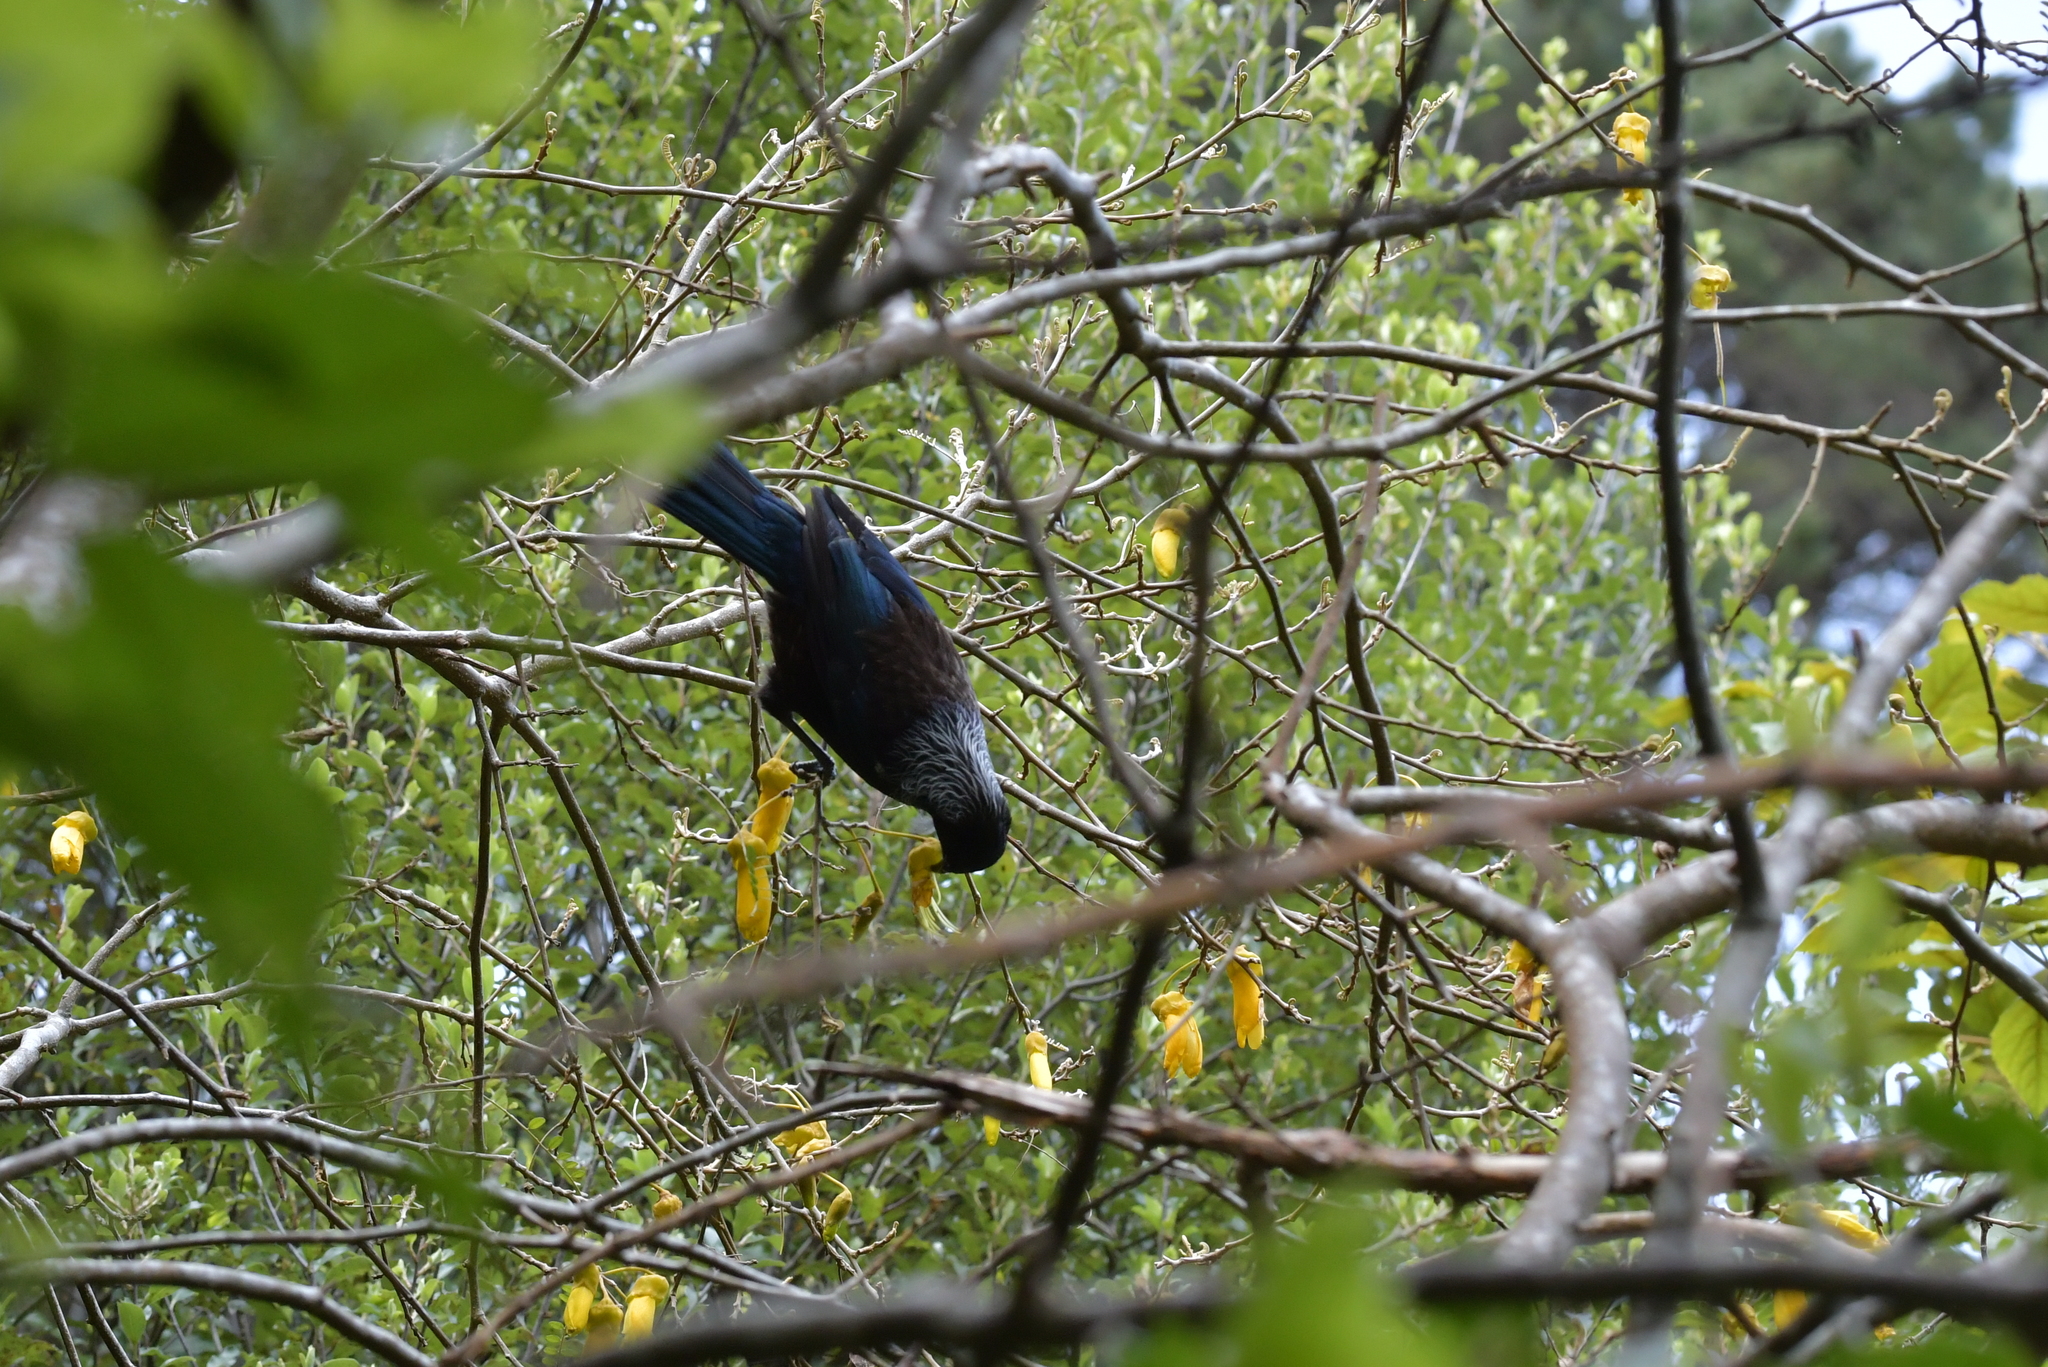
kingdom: Animalia
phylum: Chordata
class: Aves
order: Passeriformes
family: Meliphagidae
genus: Prosthemadera
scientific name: Prosthemadera novaeseelandiae
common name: Tui
